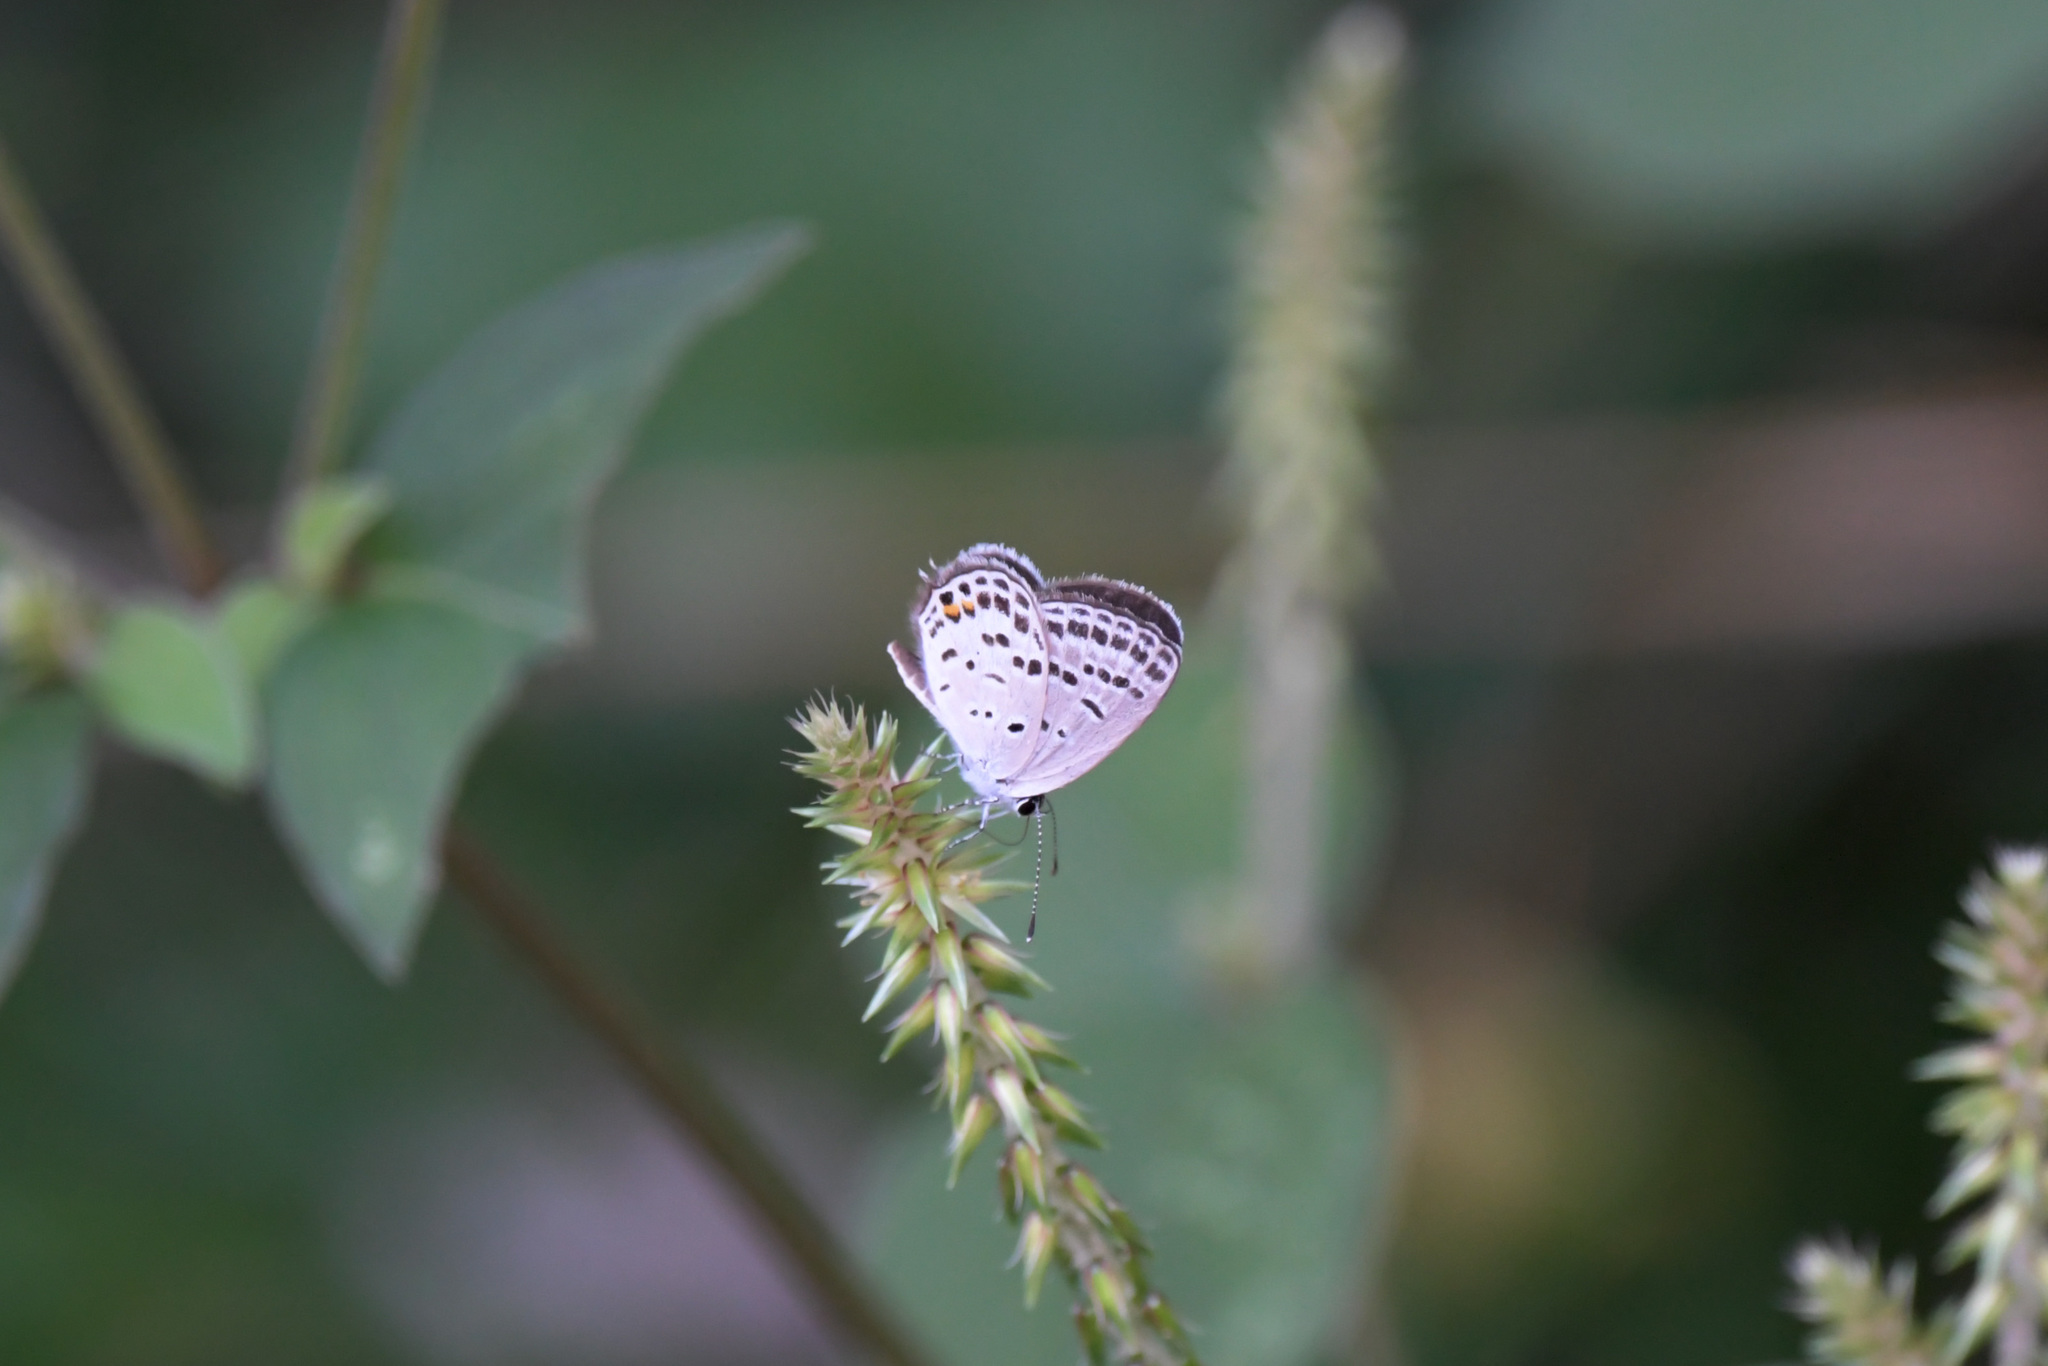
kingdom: Animalia
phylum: Arthropoda
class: Insecta
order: Lepidoptera
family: Lycaenidae
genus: Tongeia
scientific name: Tongeia filicaudis
